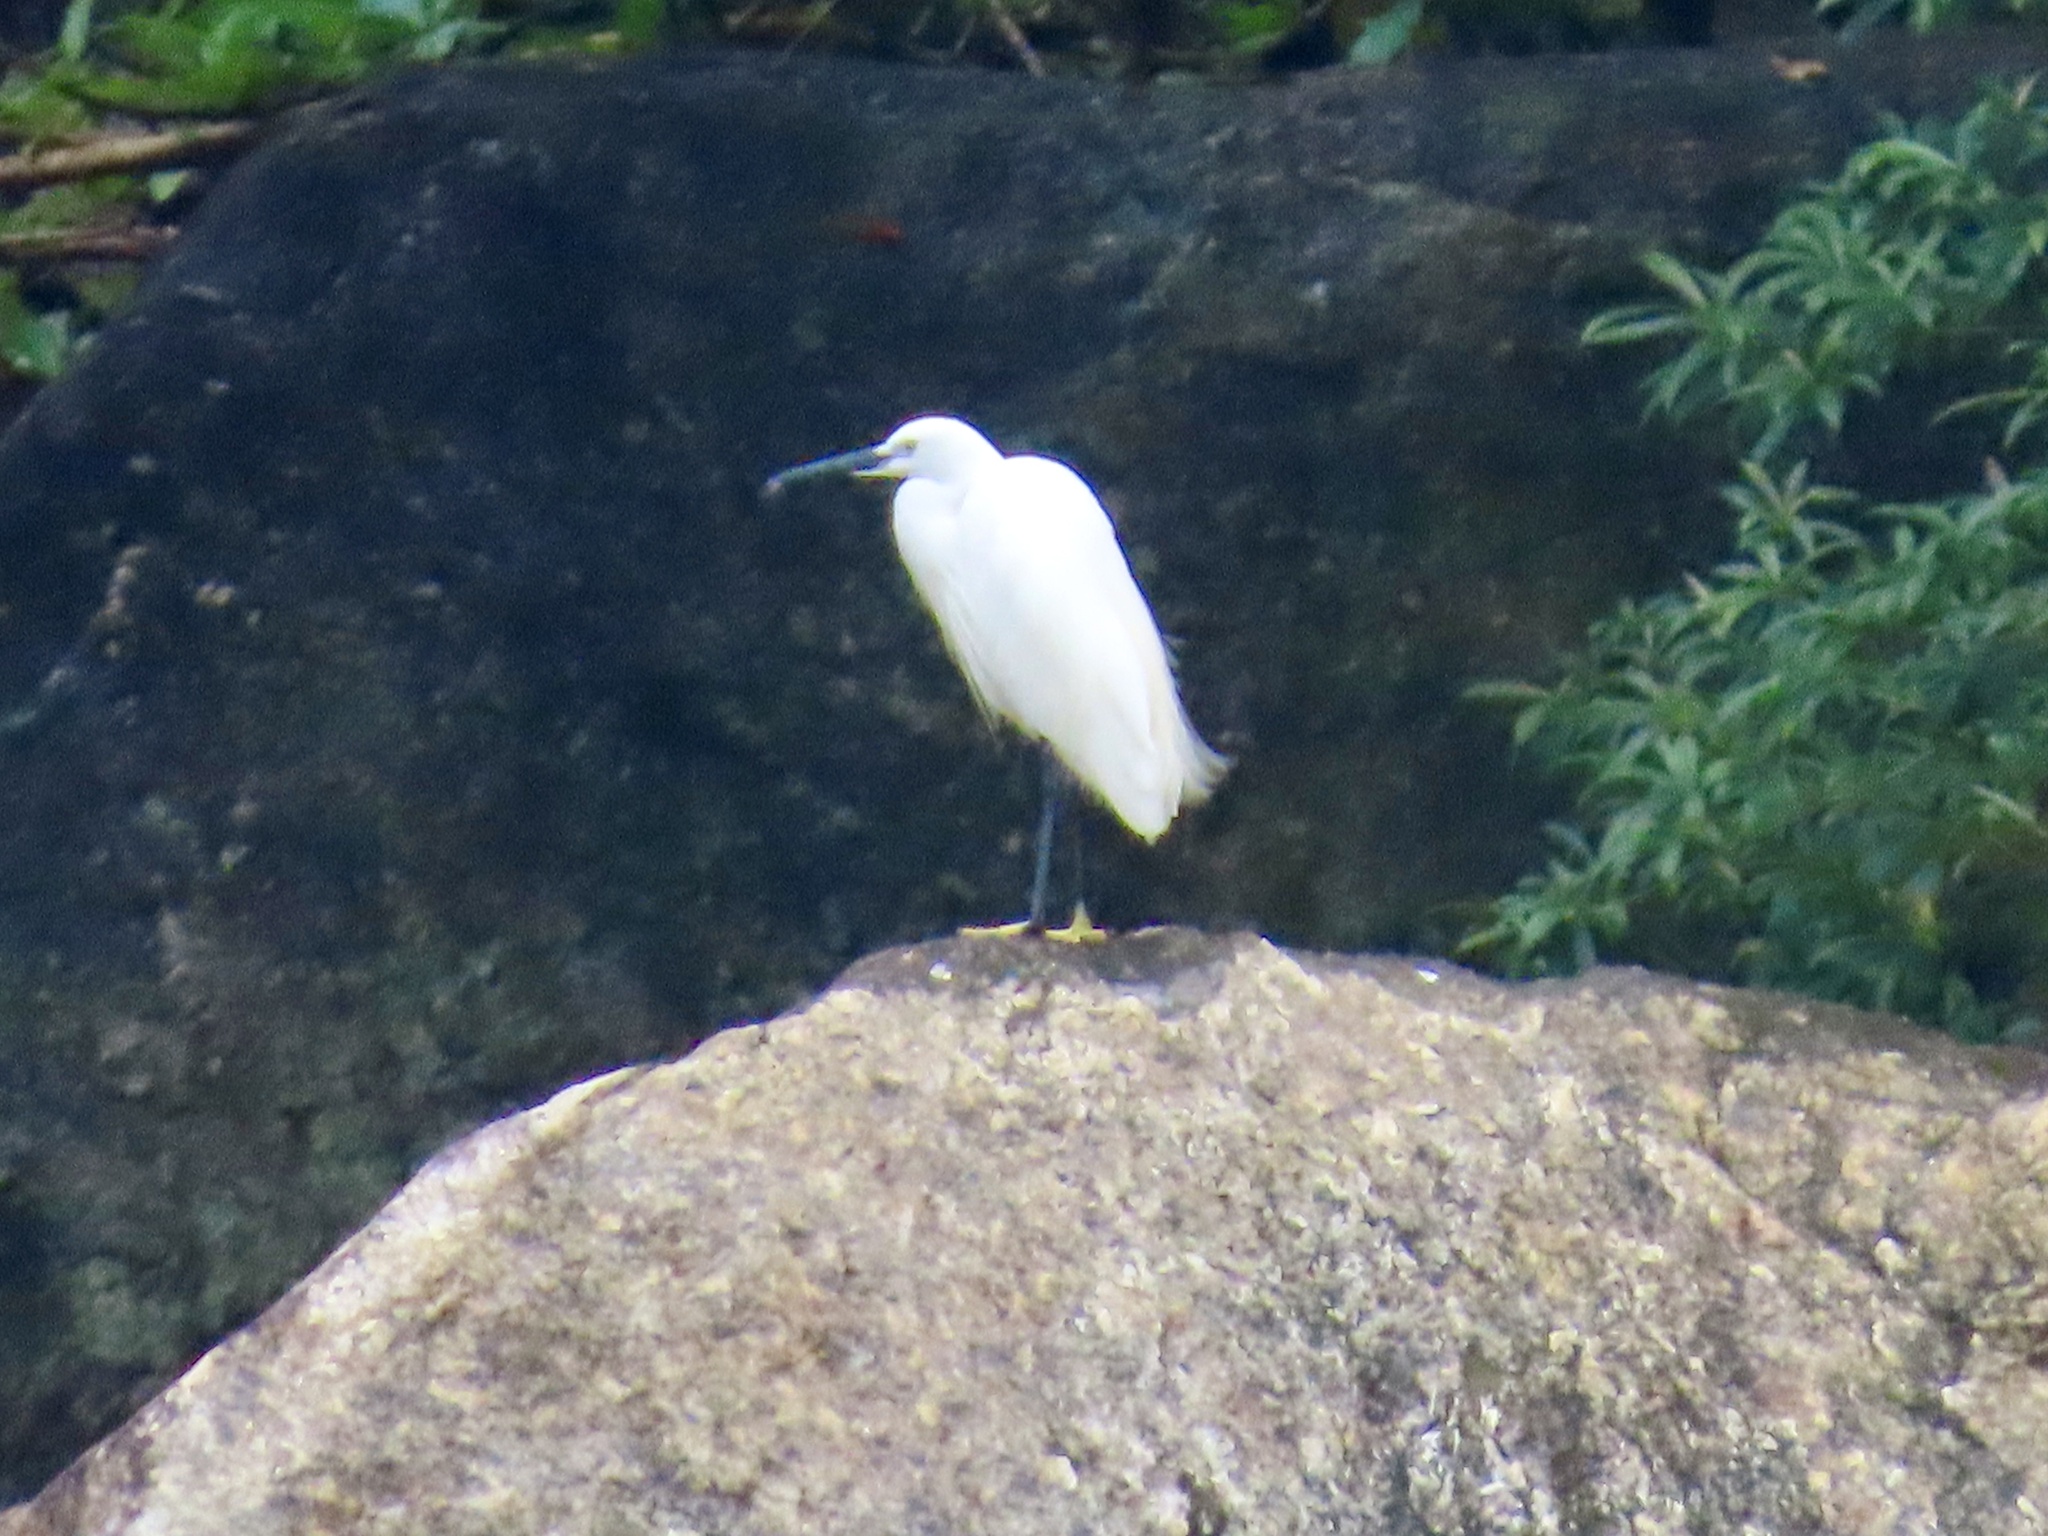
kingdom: Animalia
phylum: Chordata
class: Aves
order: Pelecaniformes
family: Ardeidae
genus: Egretta
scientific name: Egretta garzetta
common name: Little egret
